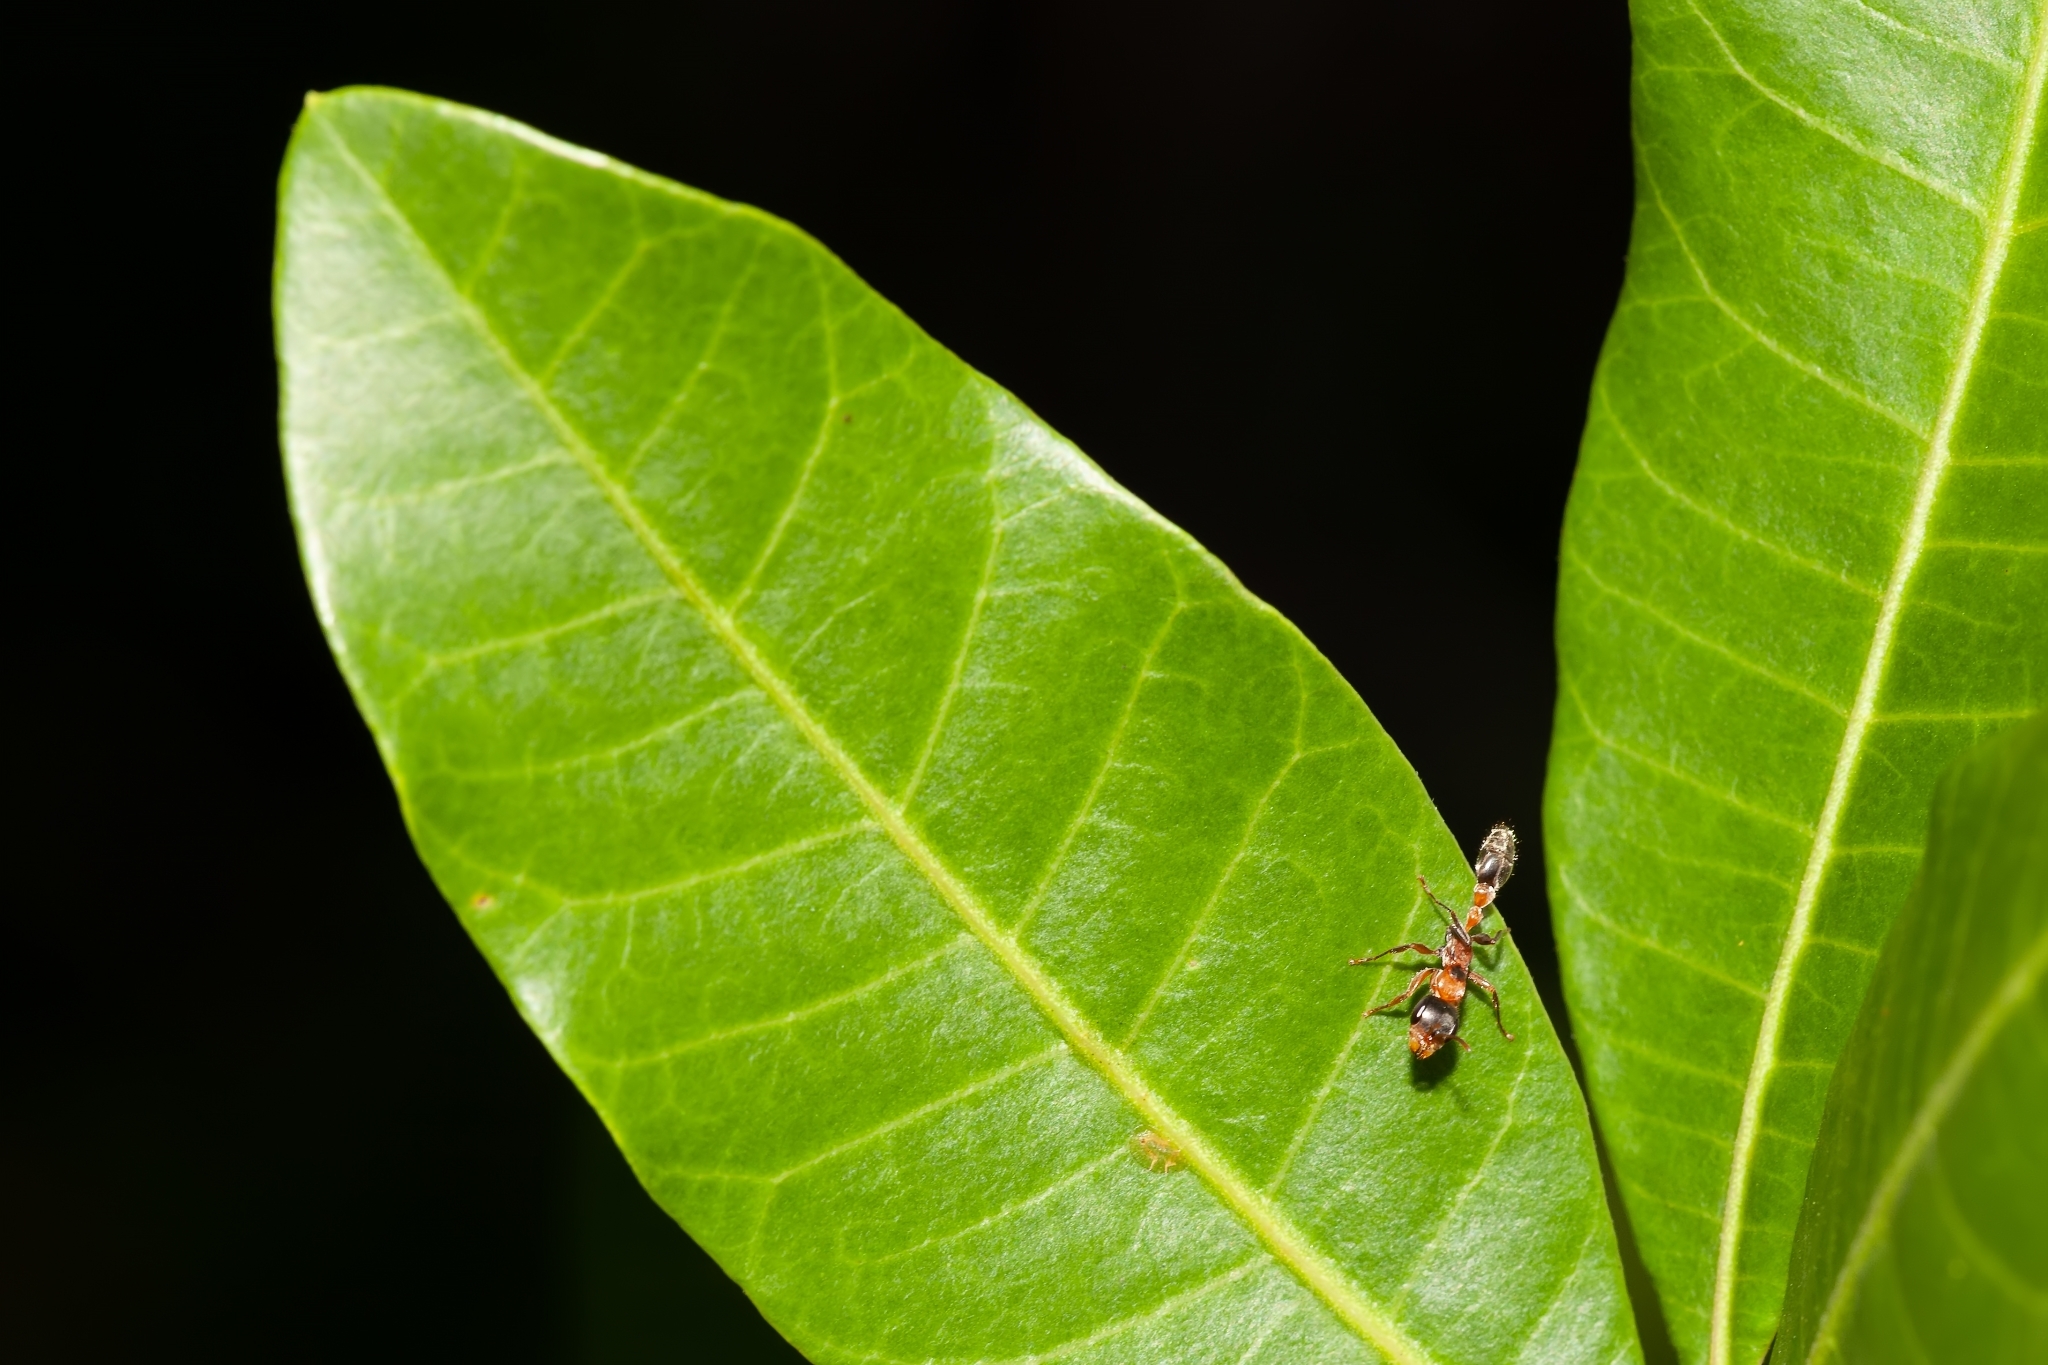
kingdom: Animalia
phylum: Arthropoda
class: Insecta
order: Hymenoptera
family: Formicidae
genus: Pseudomyrmex
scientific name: Pseudomyrmex gracilis
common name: Graceful twig ant
